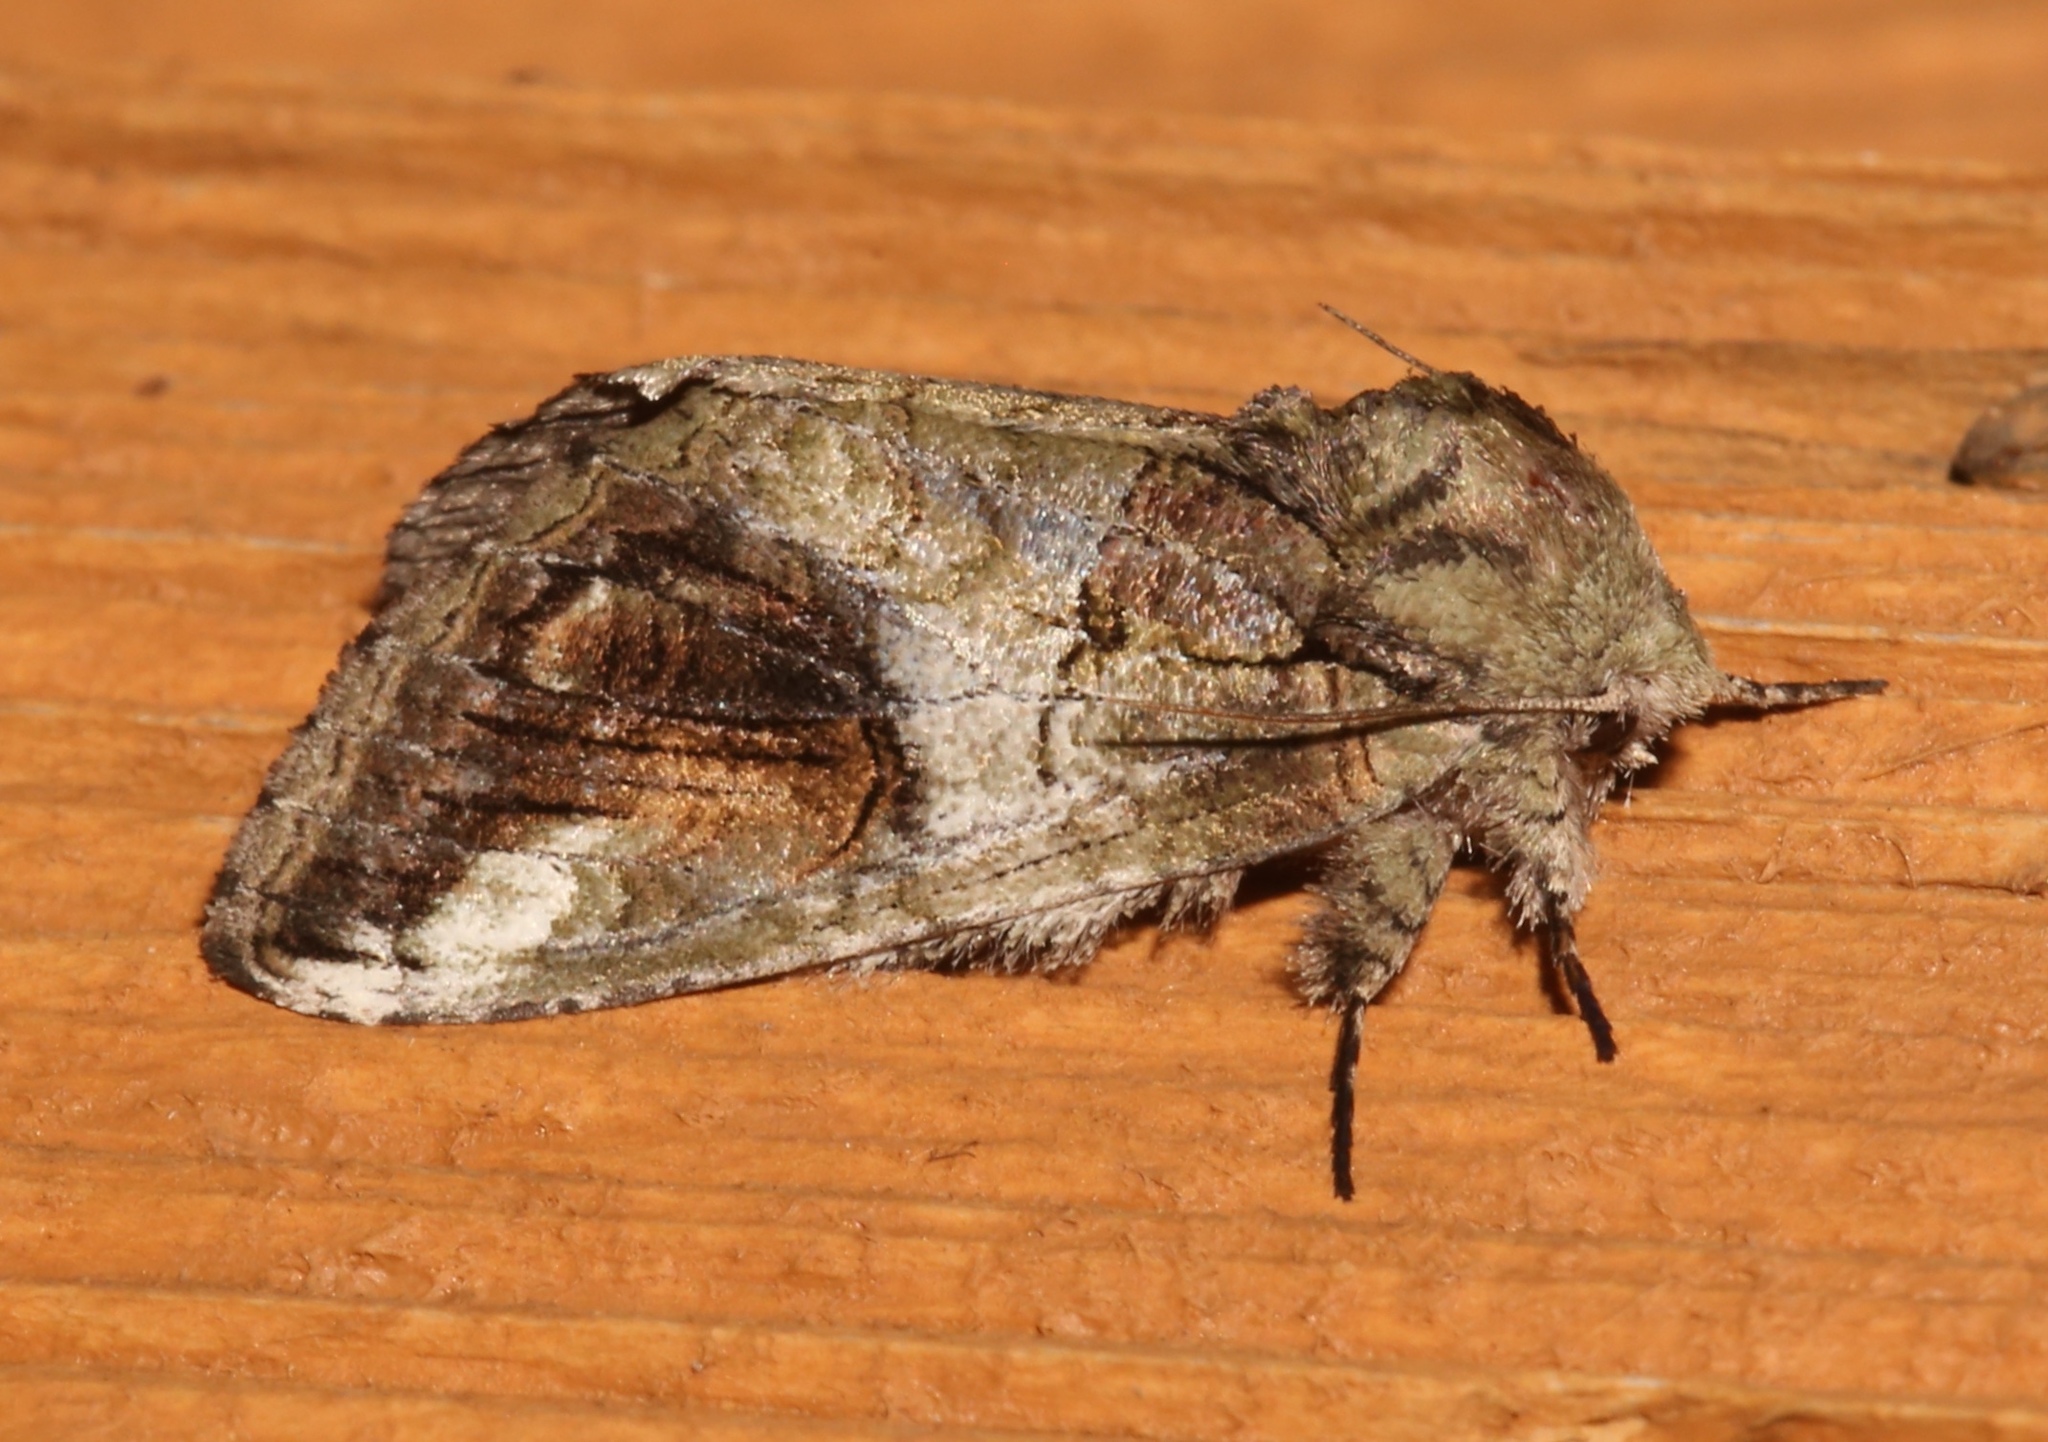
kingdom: Animalia
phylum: Arthropoda
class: Insecta
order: Lepidoptera
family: Notodontidae
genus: Heterocampa
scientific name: Heterocampa obliqua
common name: Oblique heterocampa
